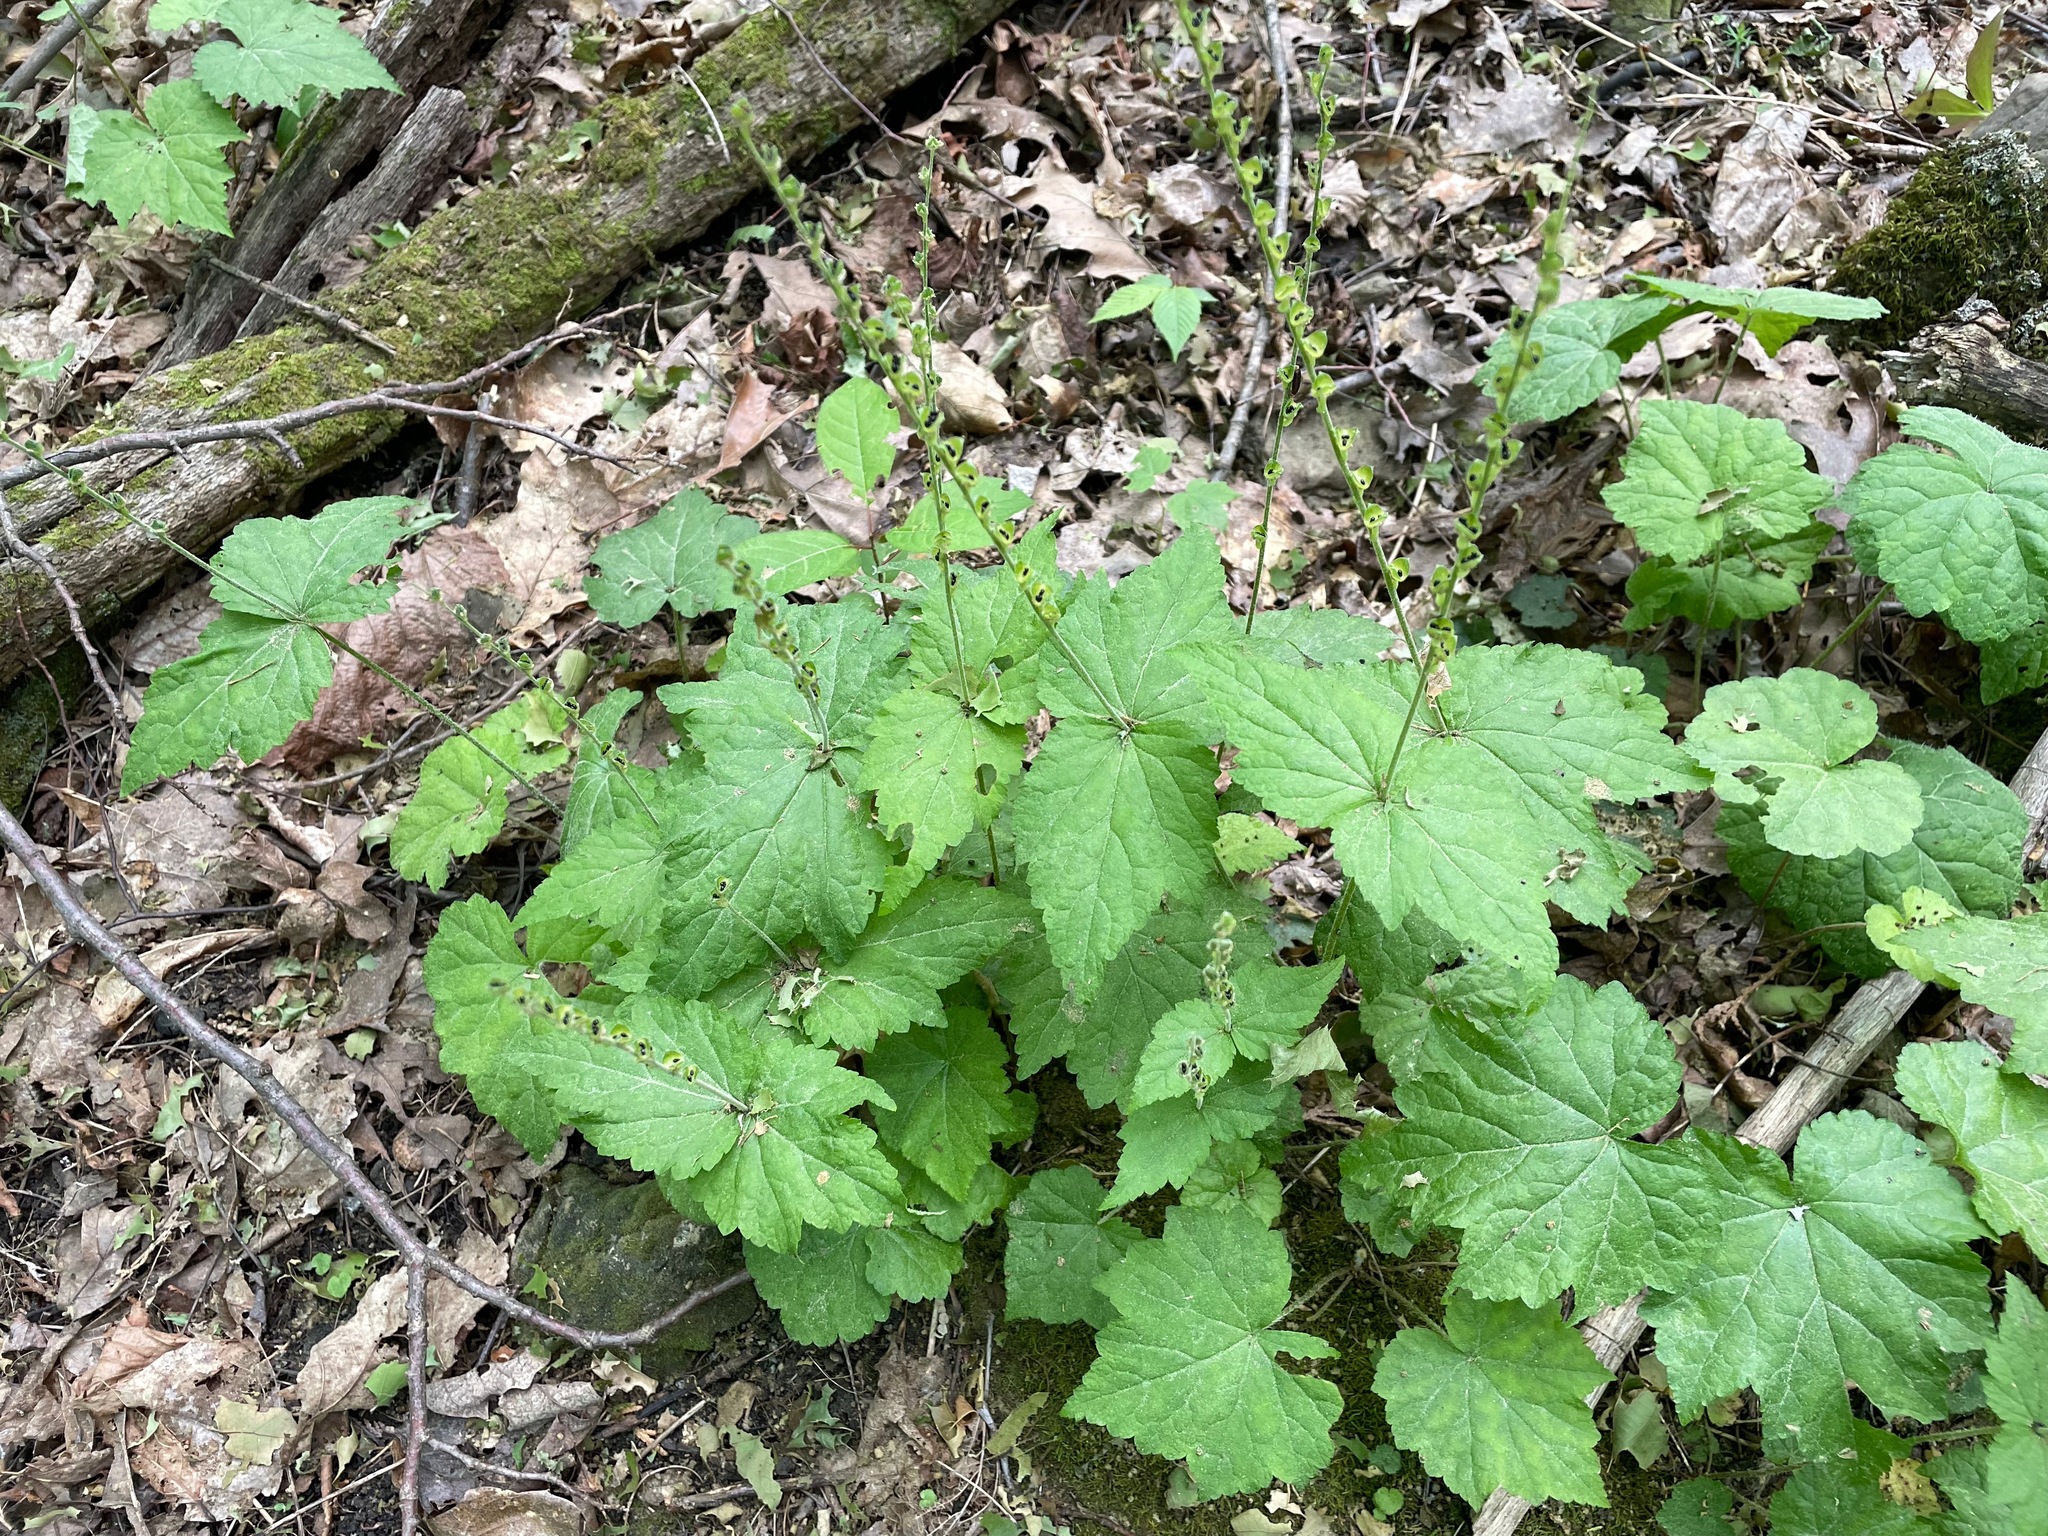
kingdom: Plantae
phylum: Tracheophyta
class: Magnoliopsida
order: Saxifragales
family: Saxifragaceae
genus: Mitella
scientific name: Mitella diphylla
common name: Coolwort
